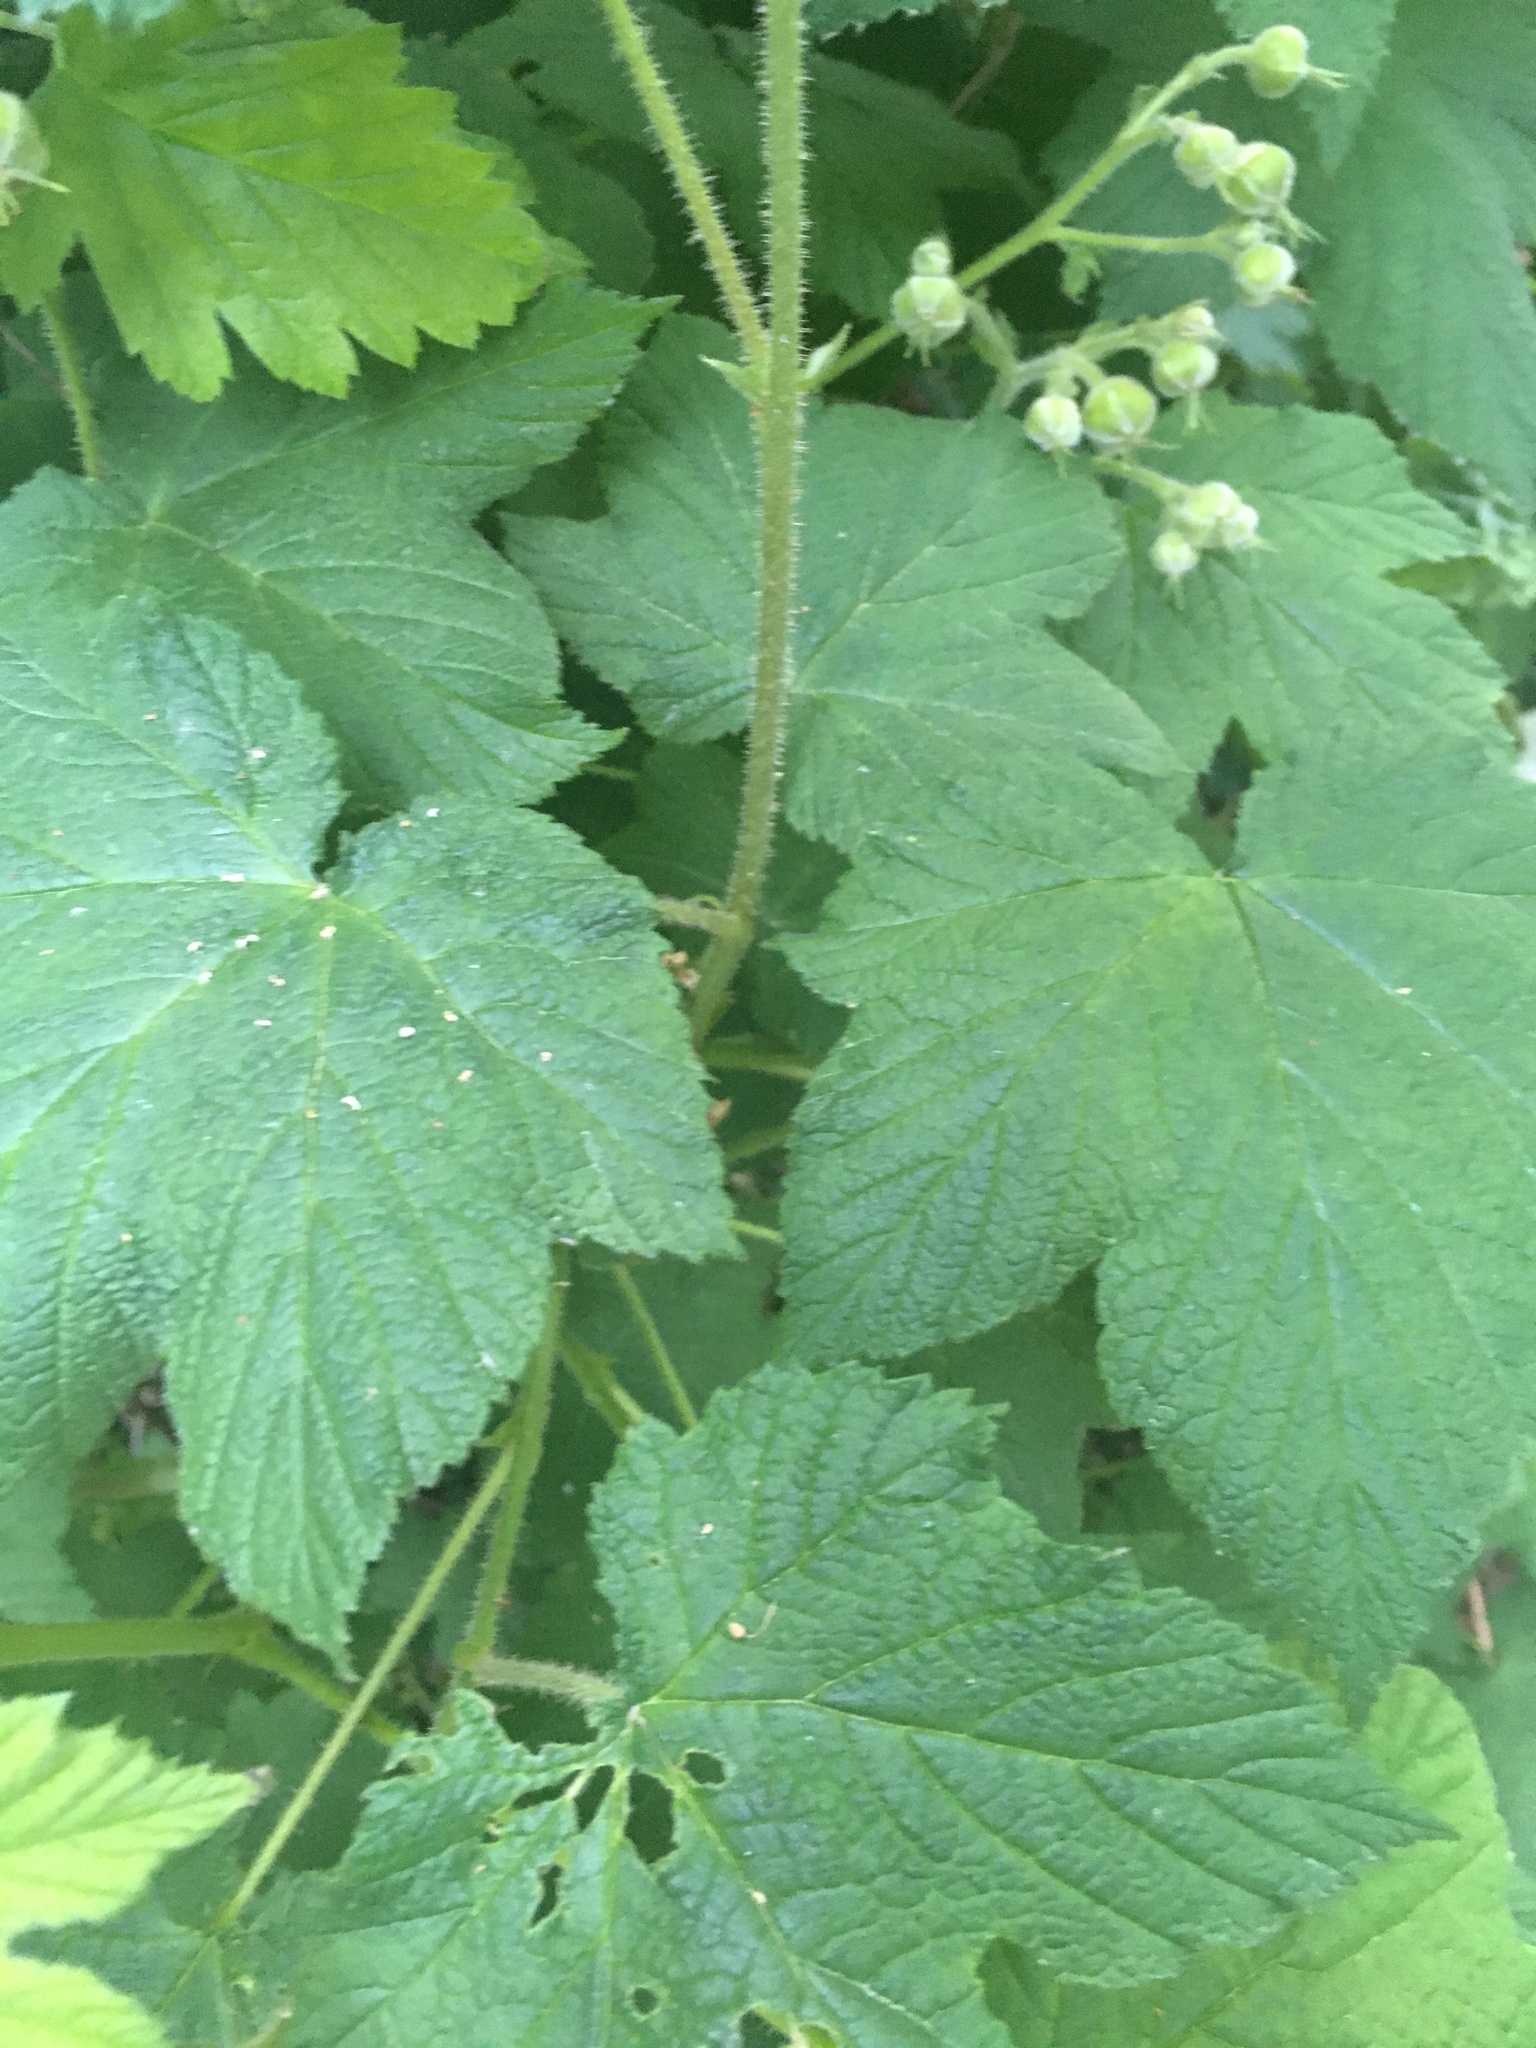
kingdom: Plantae
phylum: Tracheophyta
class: Magnoliopsida
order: Rosales
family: Rosaceae
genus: Rubus
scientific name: Rubus parviflorus
